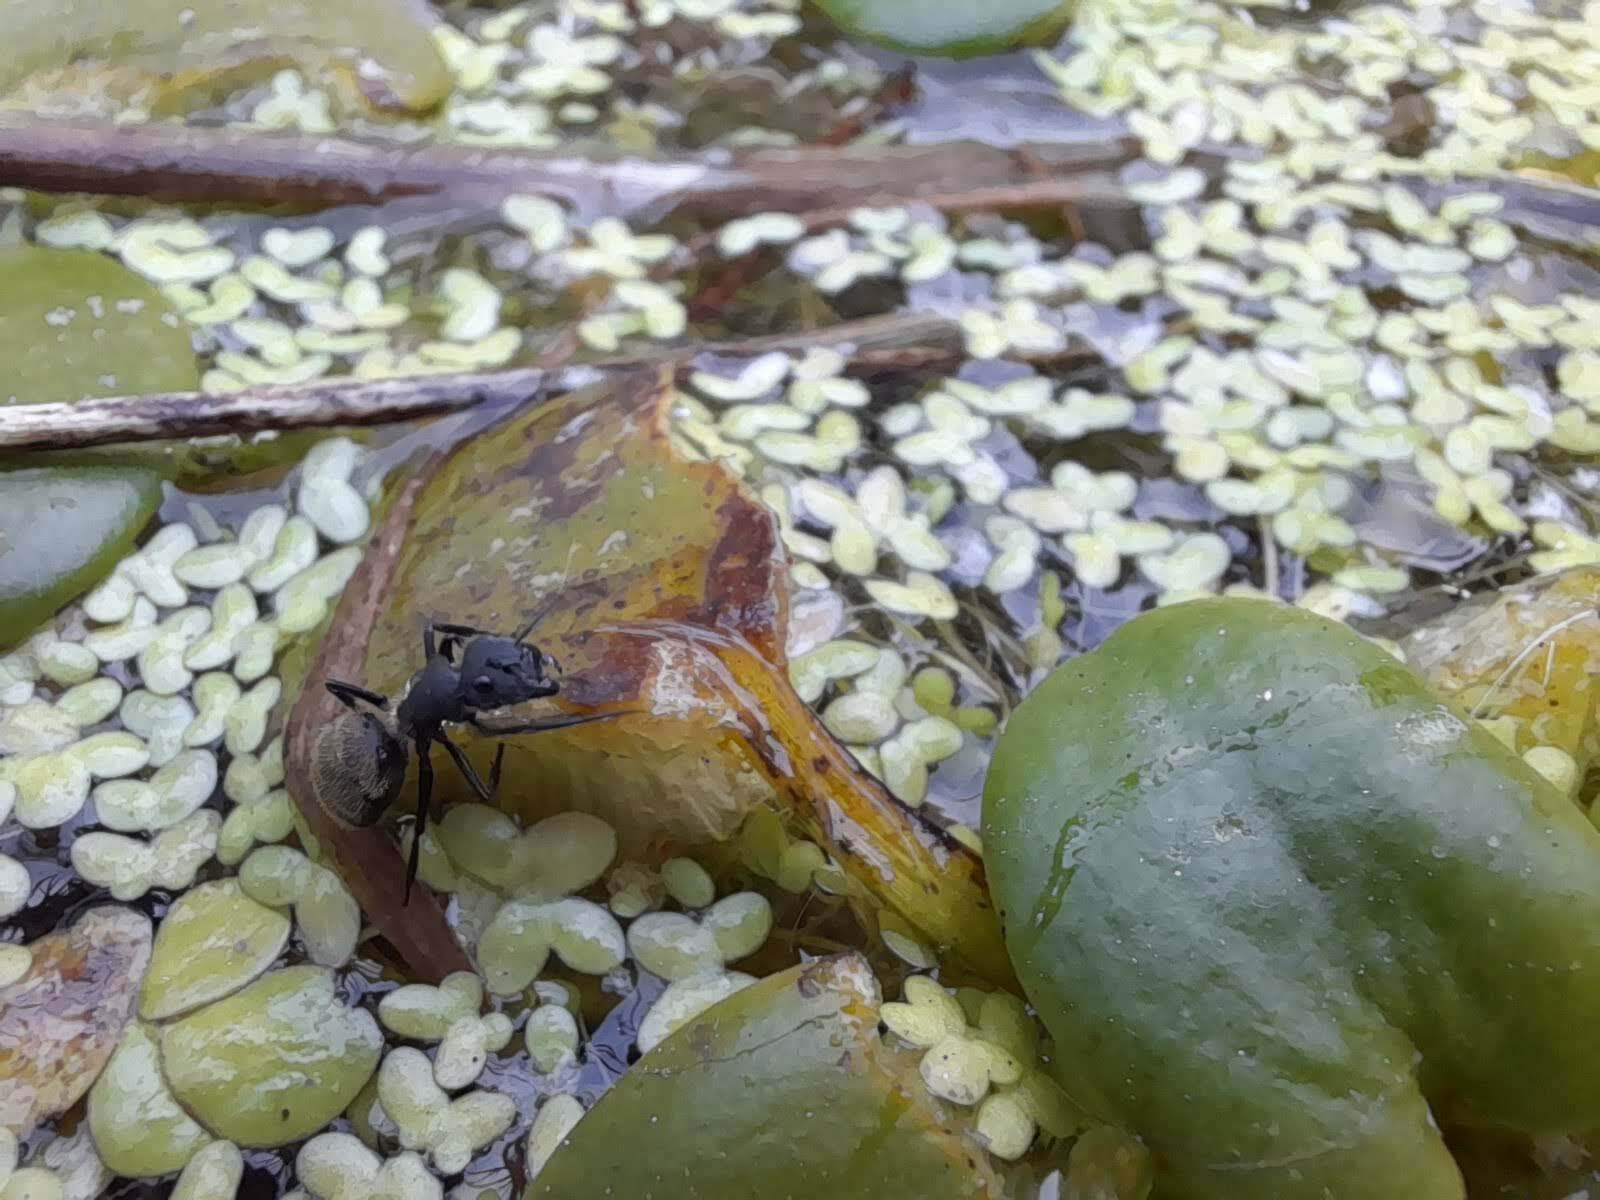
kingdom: Animalia
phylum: Arthropoda
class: Insecta
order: Hymenoptera
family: Formicidae
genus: Camponotus
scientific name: Camponotus mus
